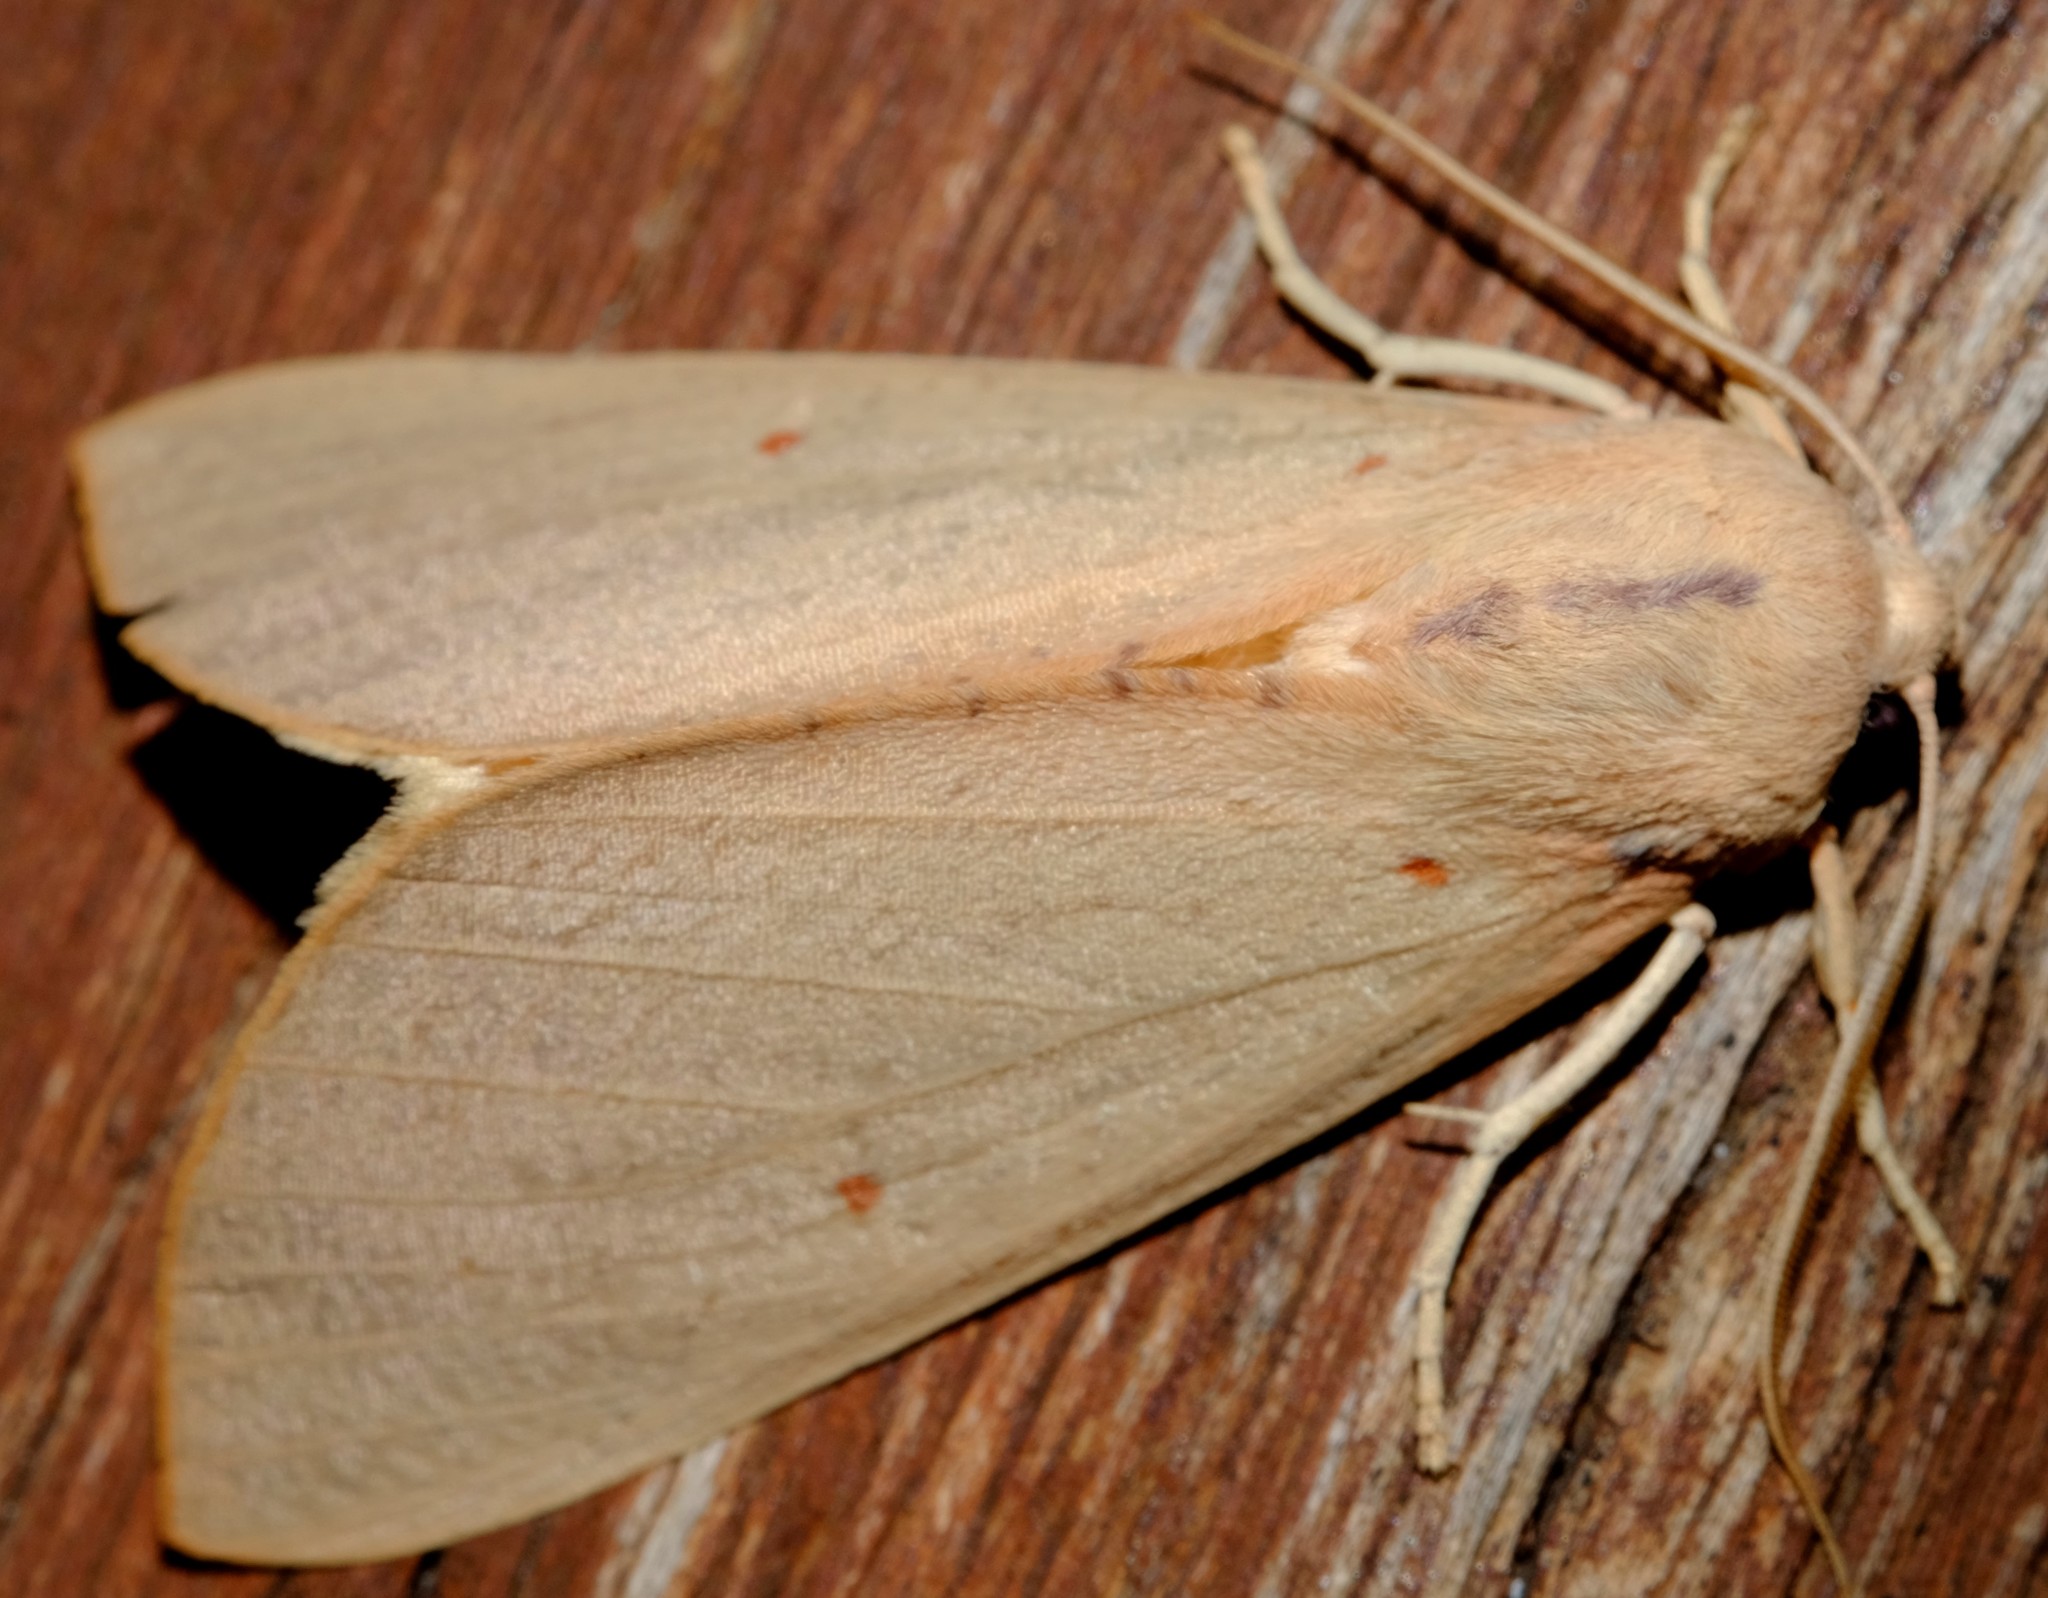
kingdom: Animalia
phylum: Arthropoda
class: Insecta
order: Lepidoptera
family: Geometridae
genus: Plesanemma
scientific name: Plesanemma fucata
